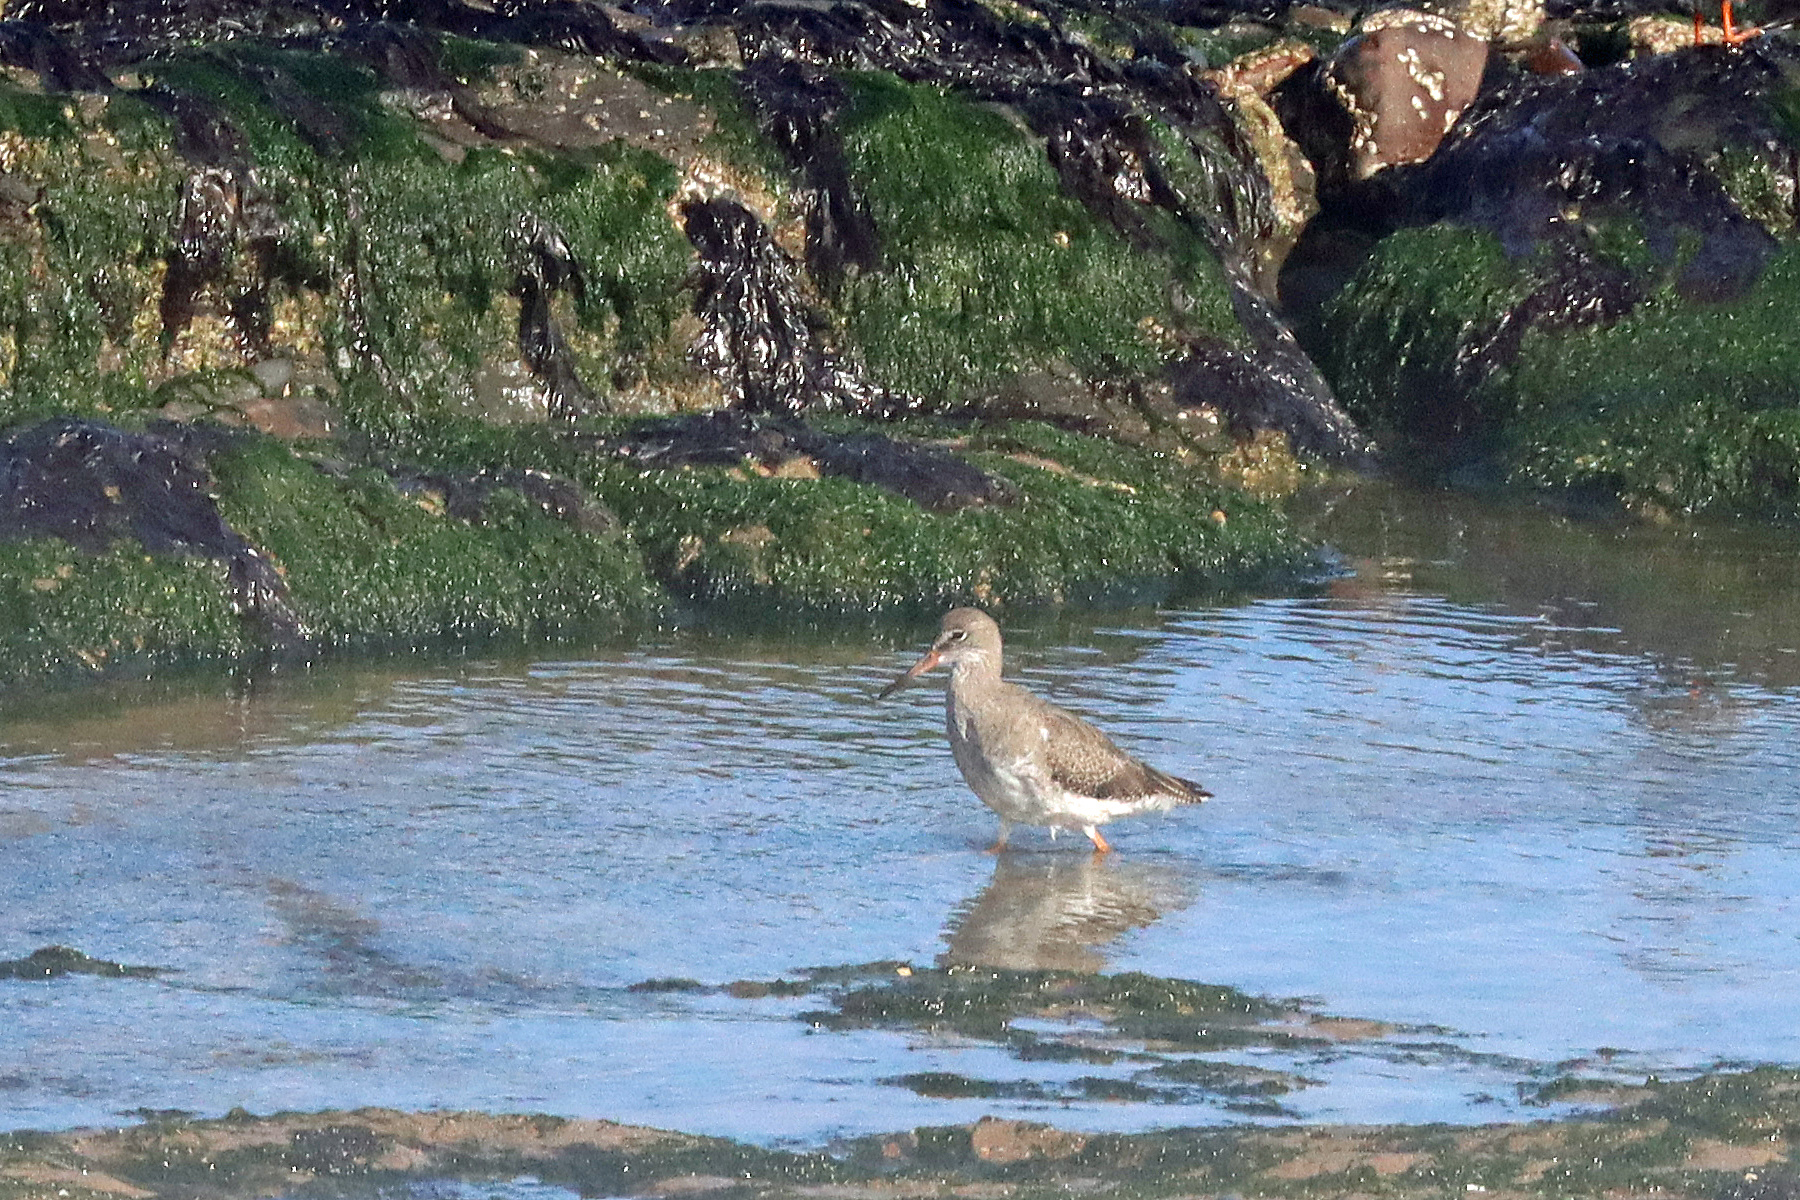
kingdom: Animalia
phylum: Chordata
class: Aves
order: Charadriiformes
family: Scolopacidae
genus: Tringa
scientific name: Tringa totanus
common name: Common redshank
